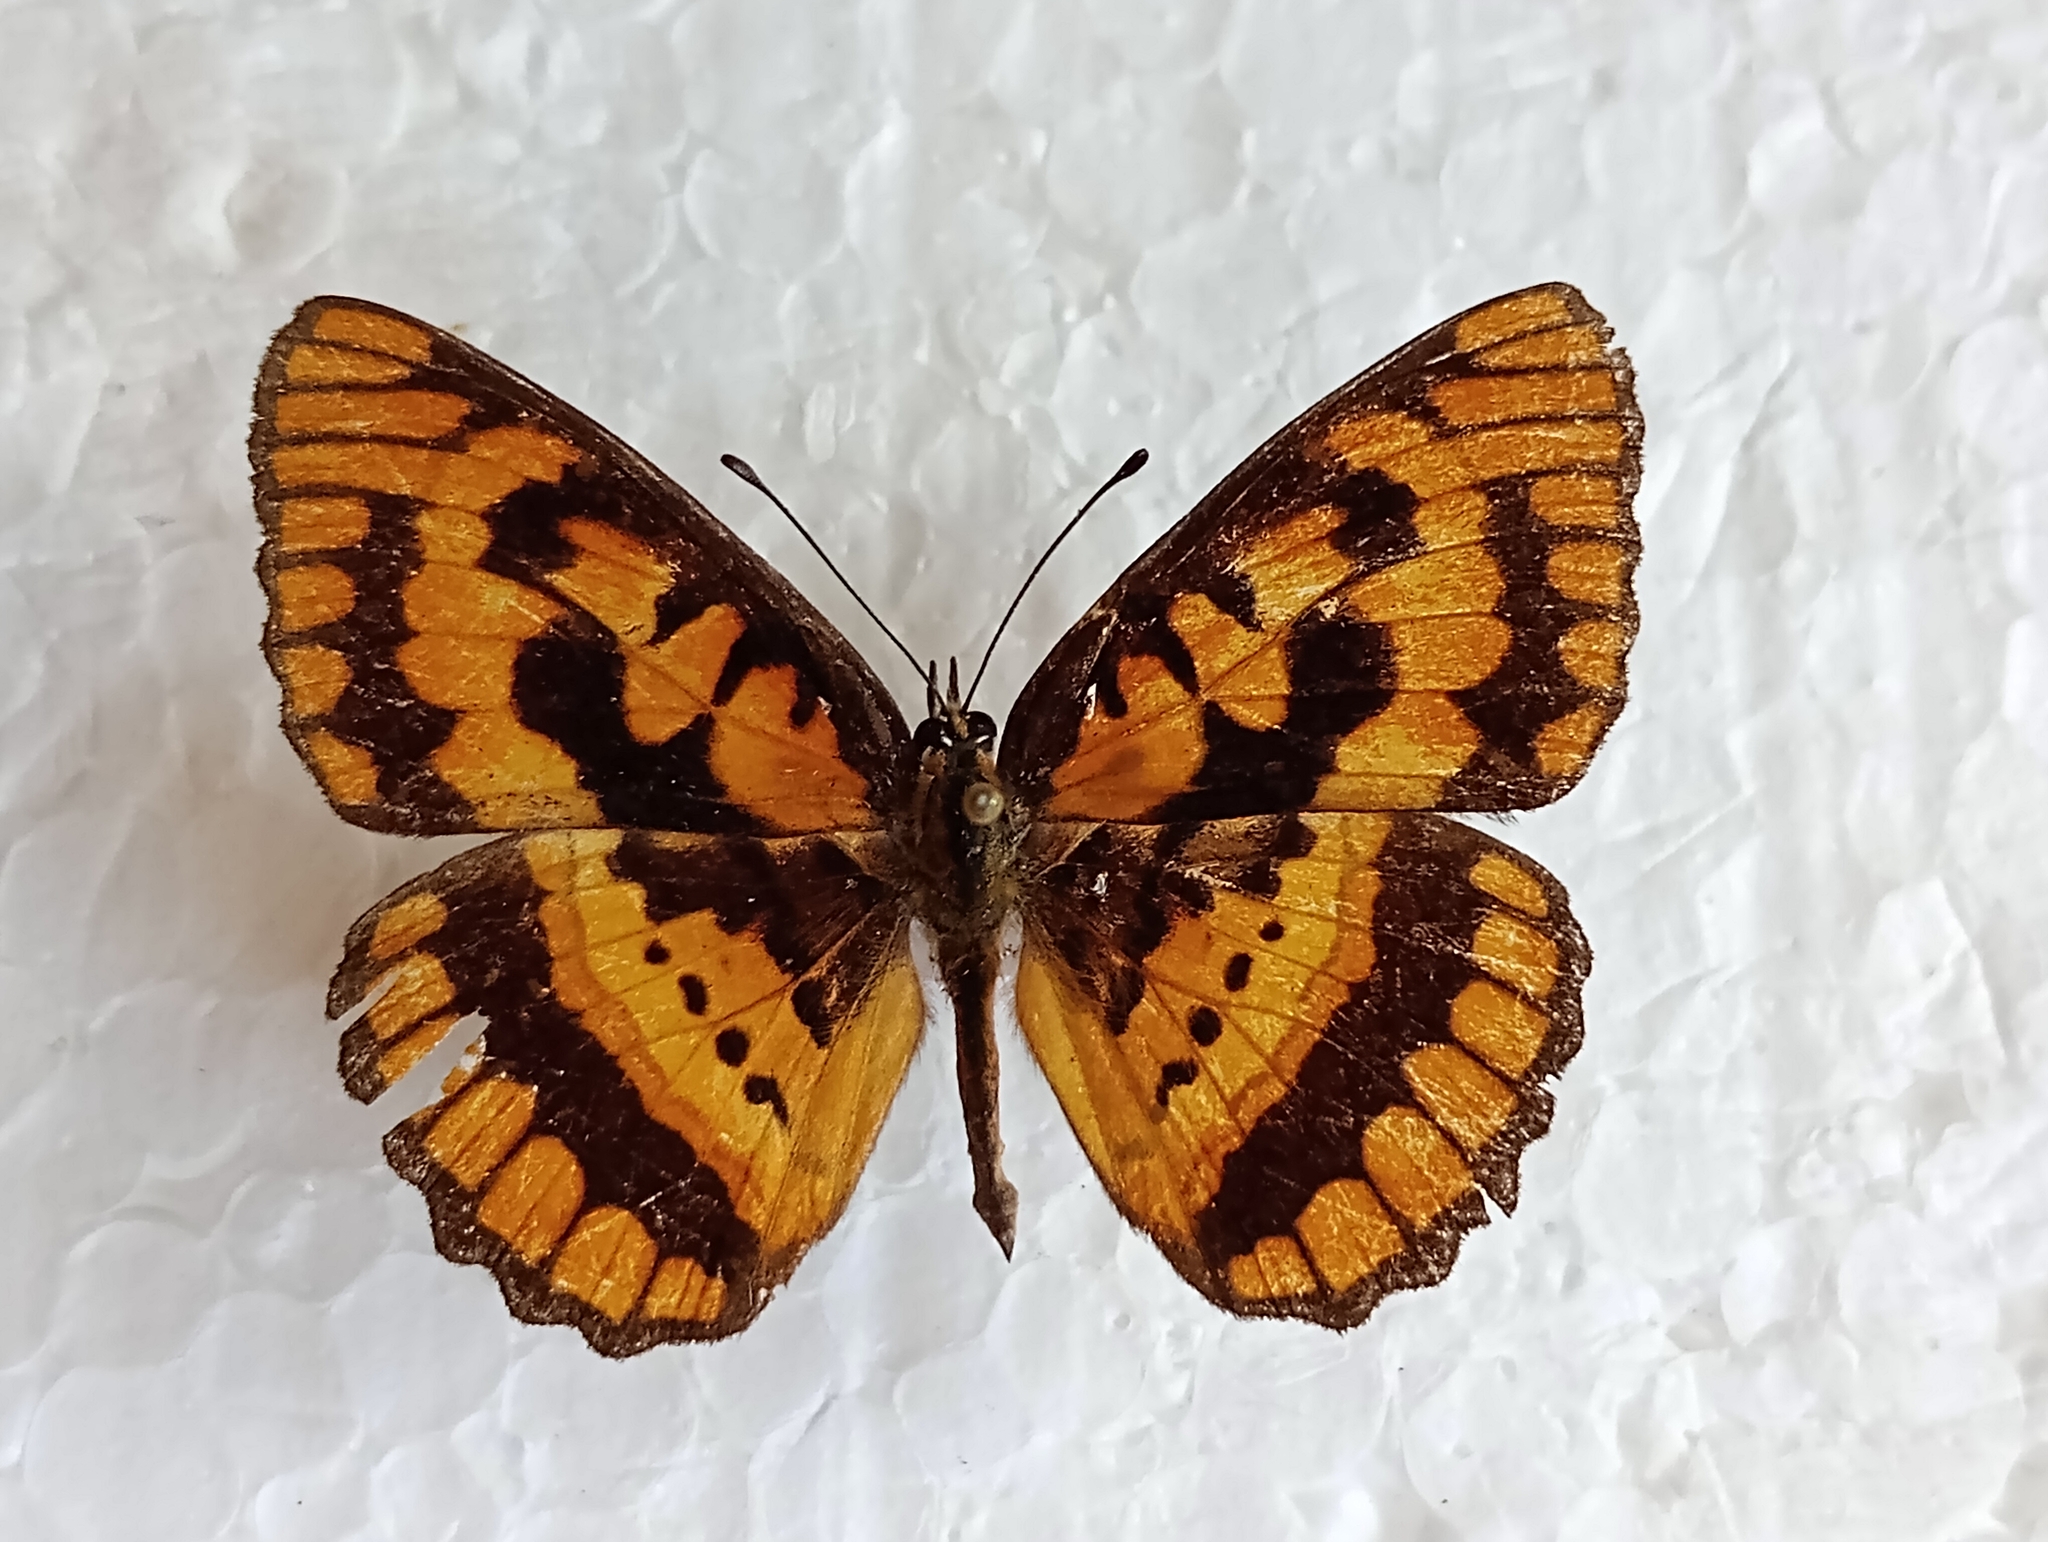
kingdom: Animalia
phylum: Arthropoda
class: Insecta
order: Lepidoptera
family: Nymphalidae
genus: Byblia
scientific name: Byblia ilithyia
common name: Spotted joker
